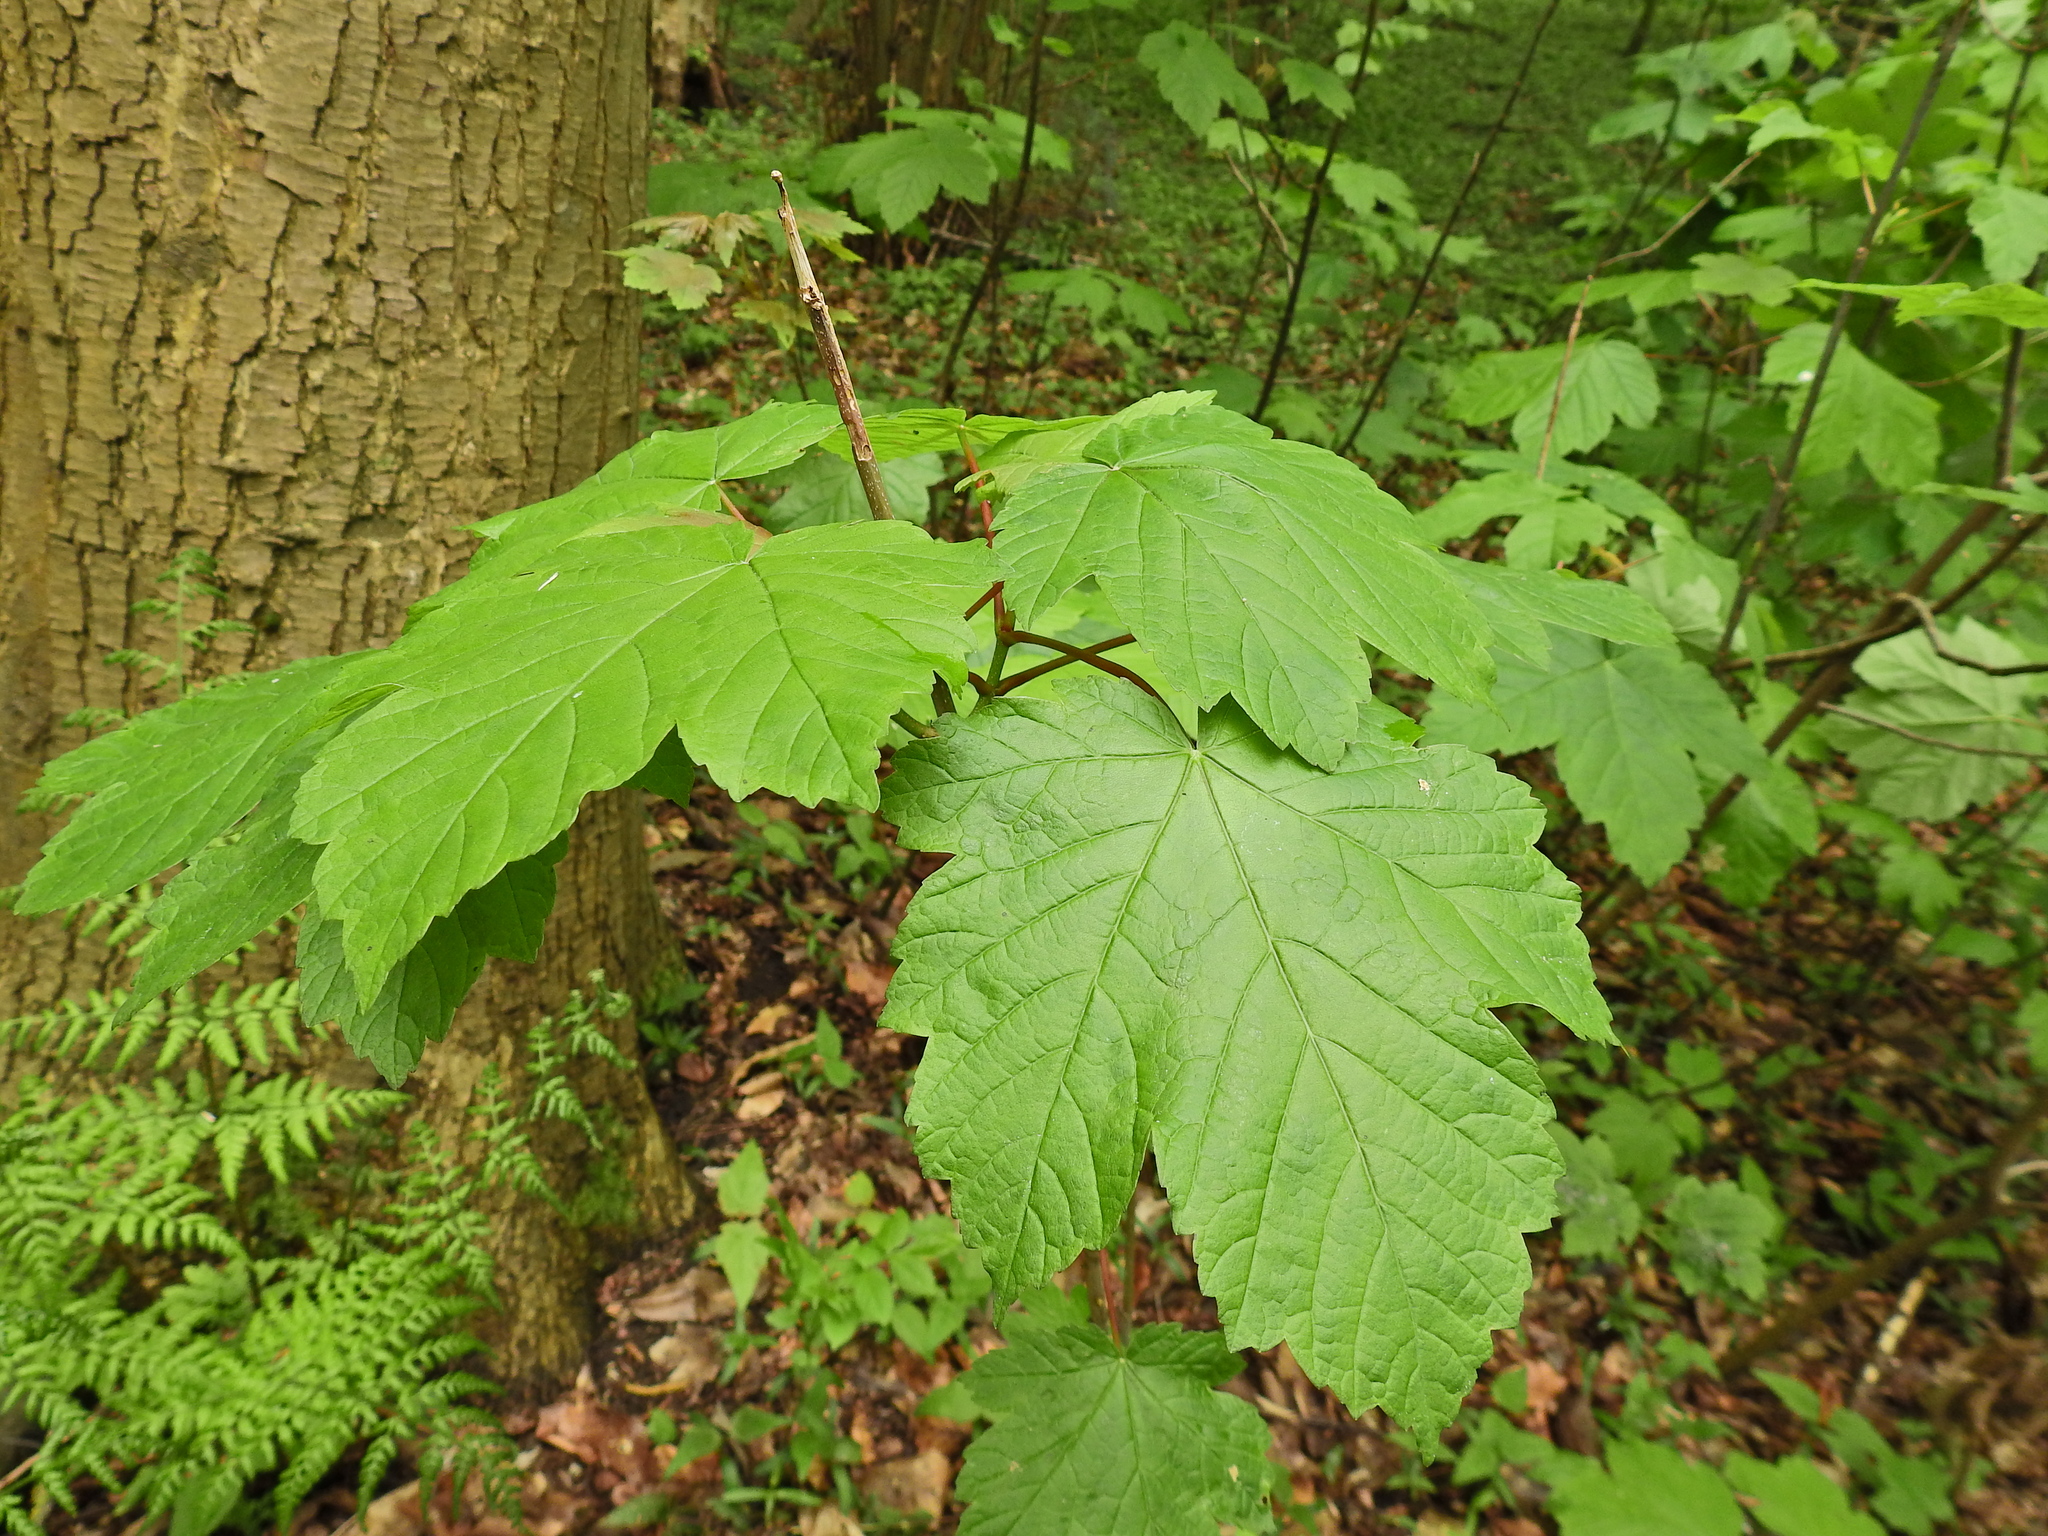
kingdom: Plantae
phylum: Tracheophyta
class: Magnoliopsida
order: Sapindales
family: Sapindaceae
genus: Acer
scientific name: Acer pseudoplatanus
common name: Sycamore
